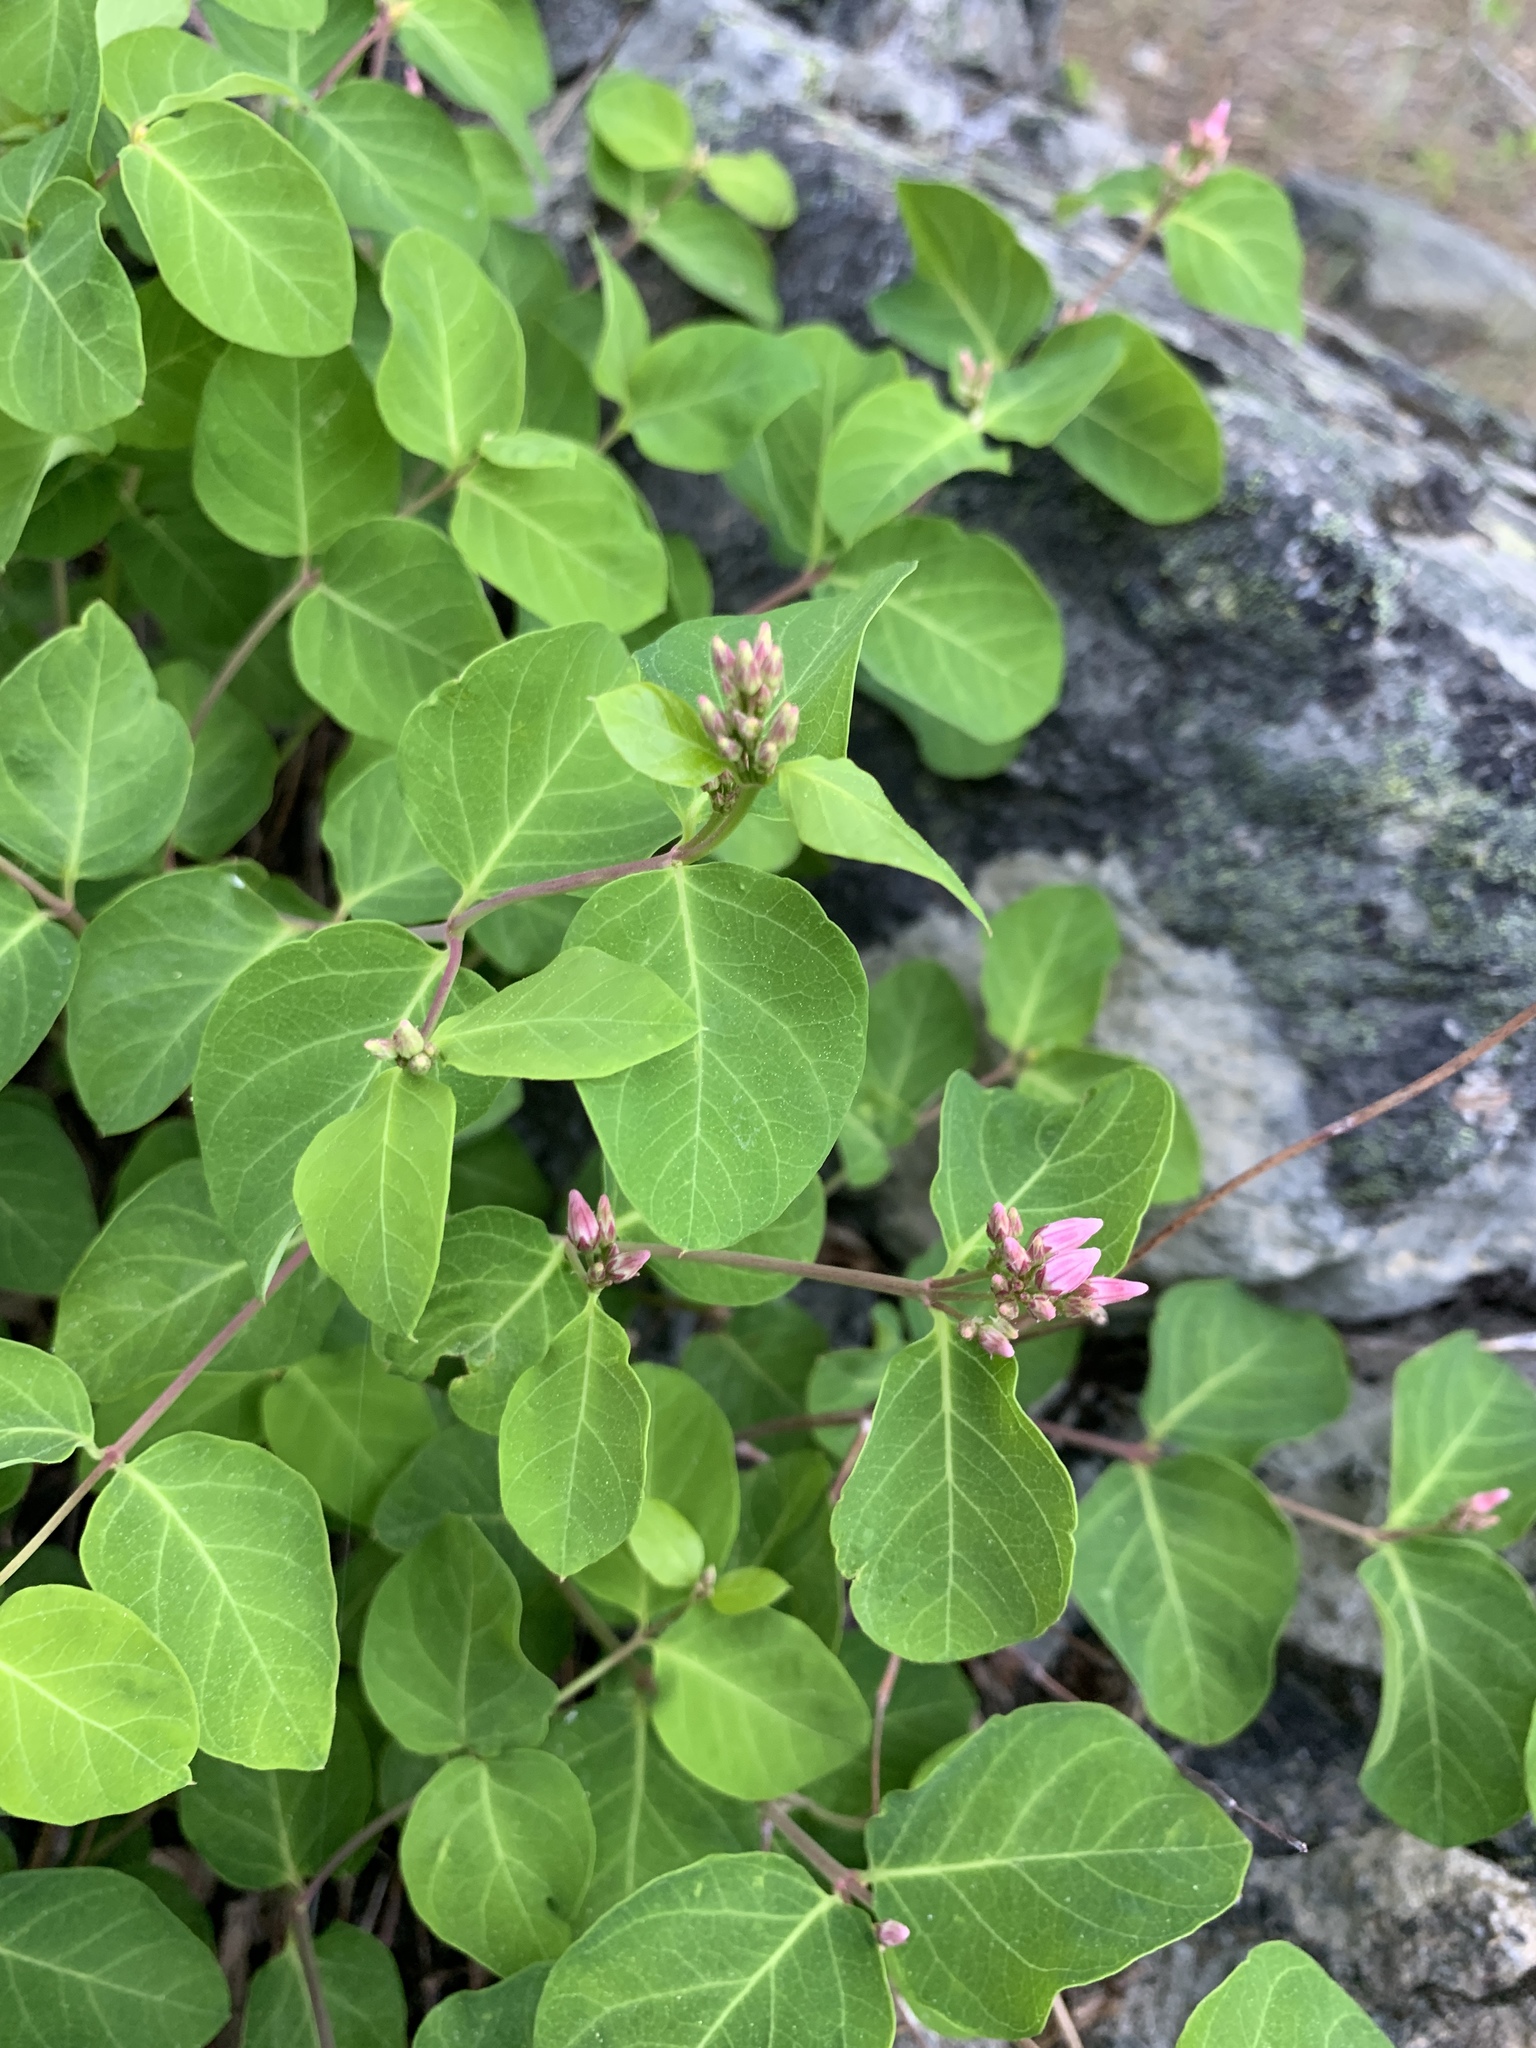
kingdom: Plantae
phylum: Tracheophyta
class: Magnoliopsida
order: Gentianales
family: Apocynaceae
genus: Apocynum
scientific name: Apocynum androsaemifolium
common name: Spreading dogbane
